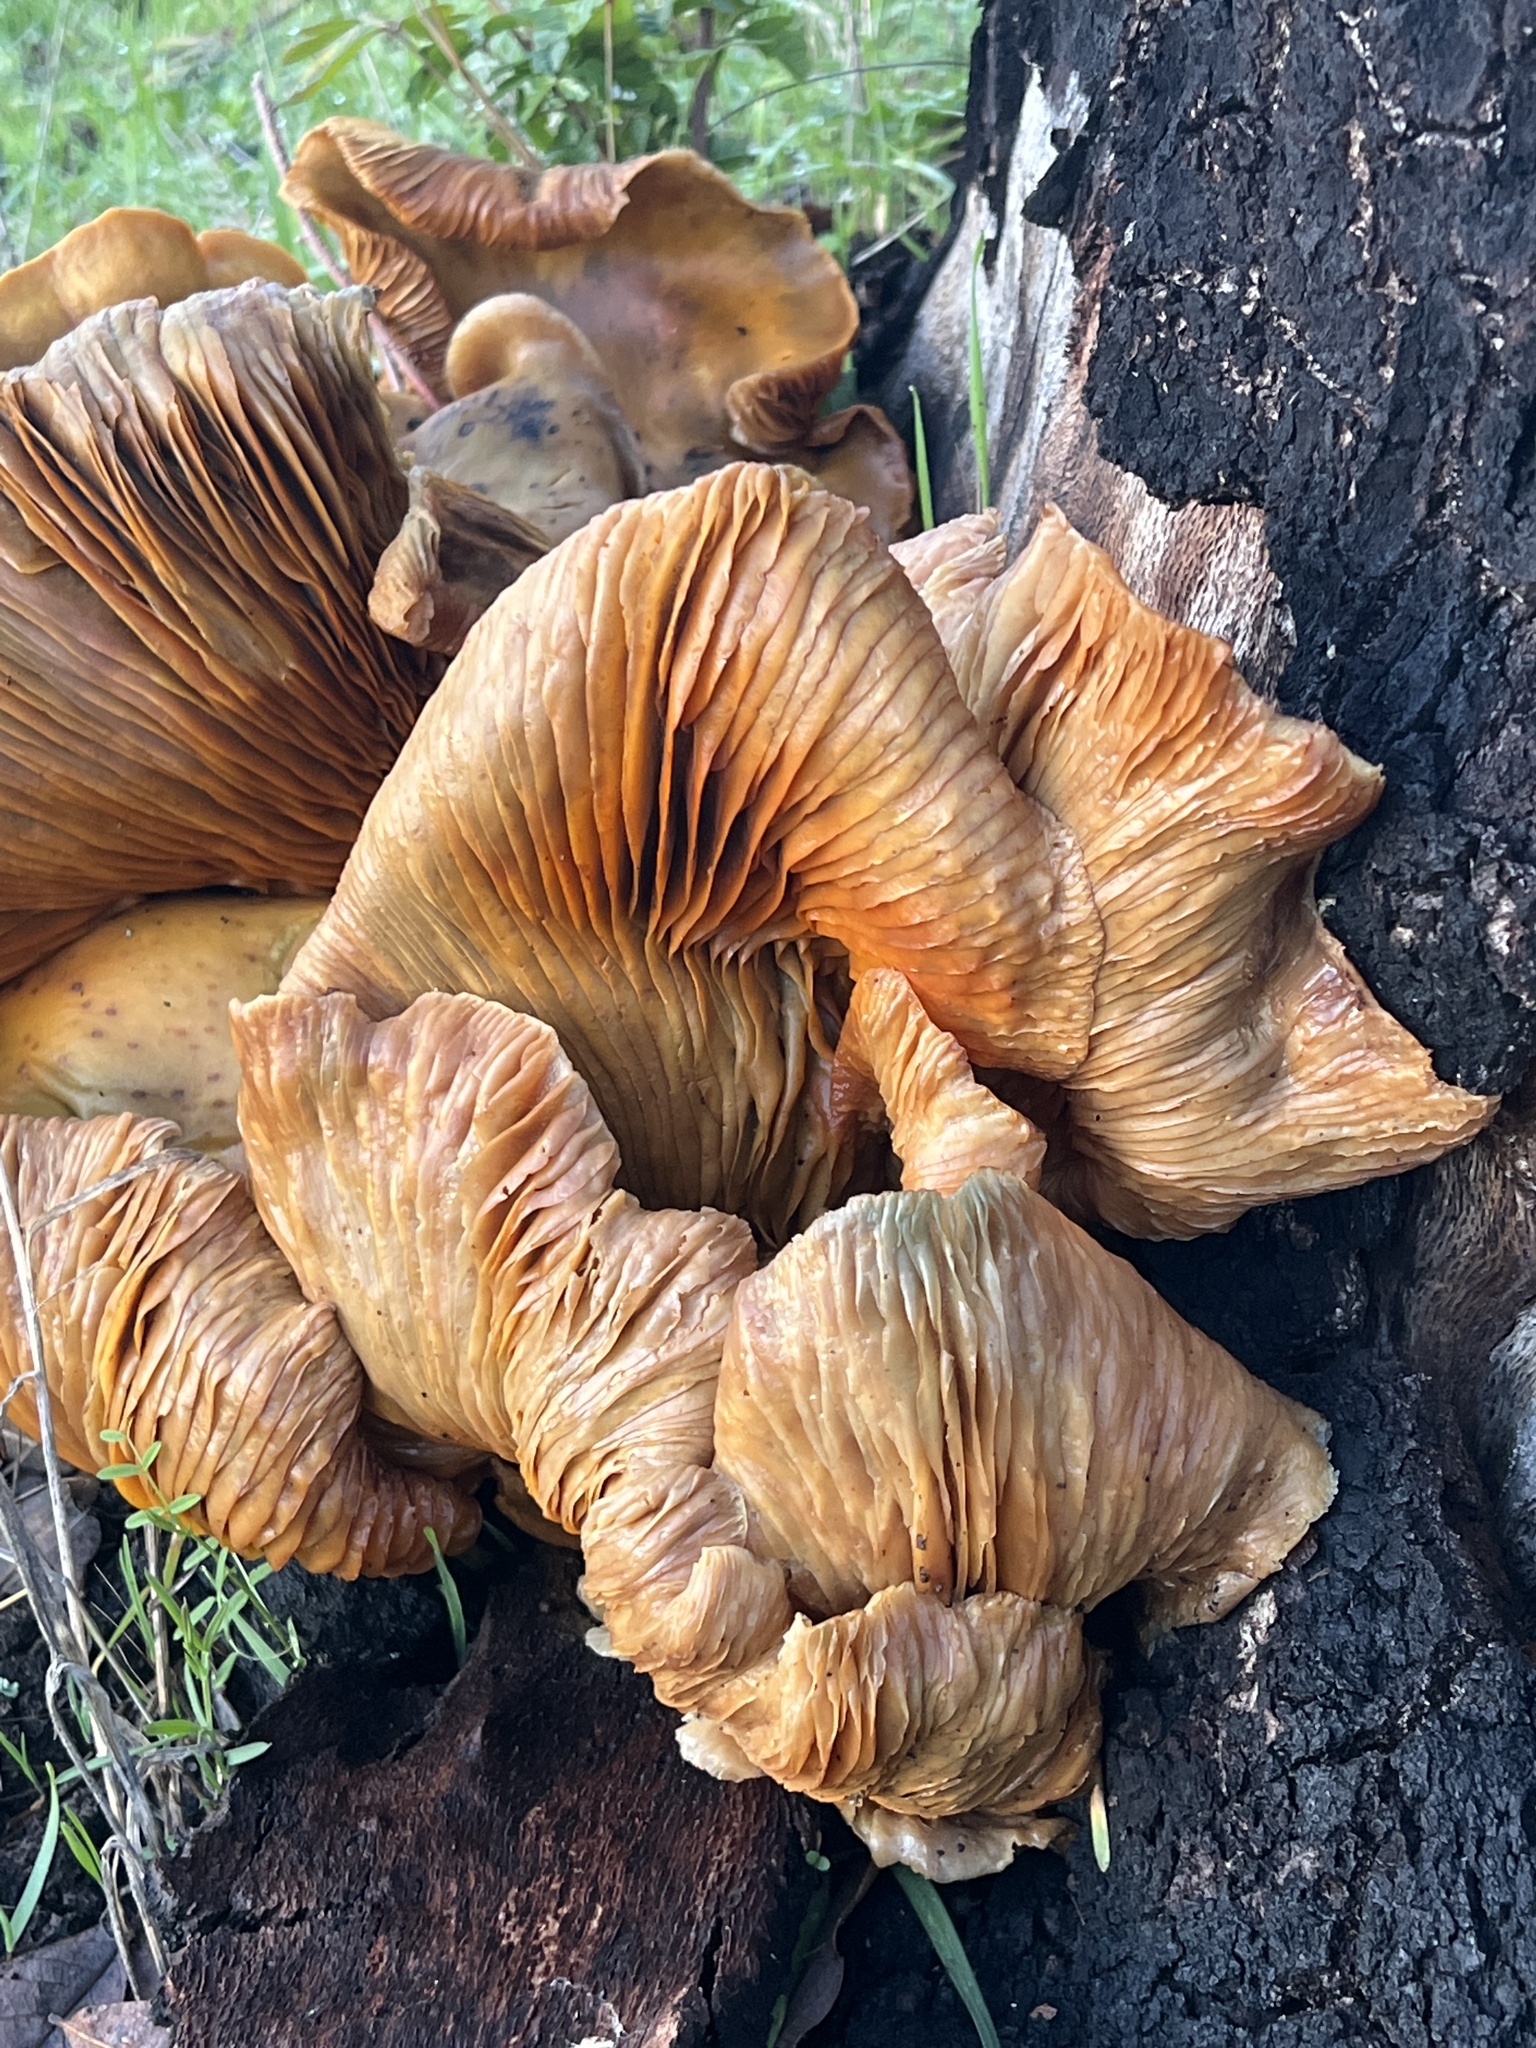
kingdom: Fungi
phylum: Basidiomycota
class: Agaricomycetes
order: Agaricales
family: Omphalotaceae
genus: Omphalotus
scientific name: Omphalotus olivascens
